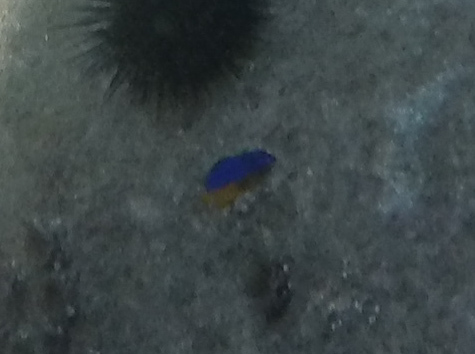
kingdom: Animalia
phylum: Chordata
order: Perciformes
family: Pomacentridae
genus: Microspathodon
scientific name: Microspathodon bairdii
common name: Bumphead damselfish
